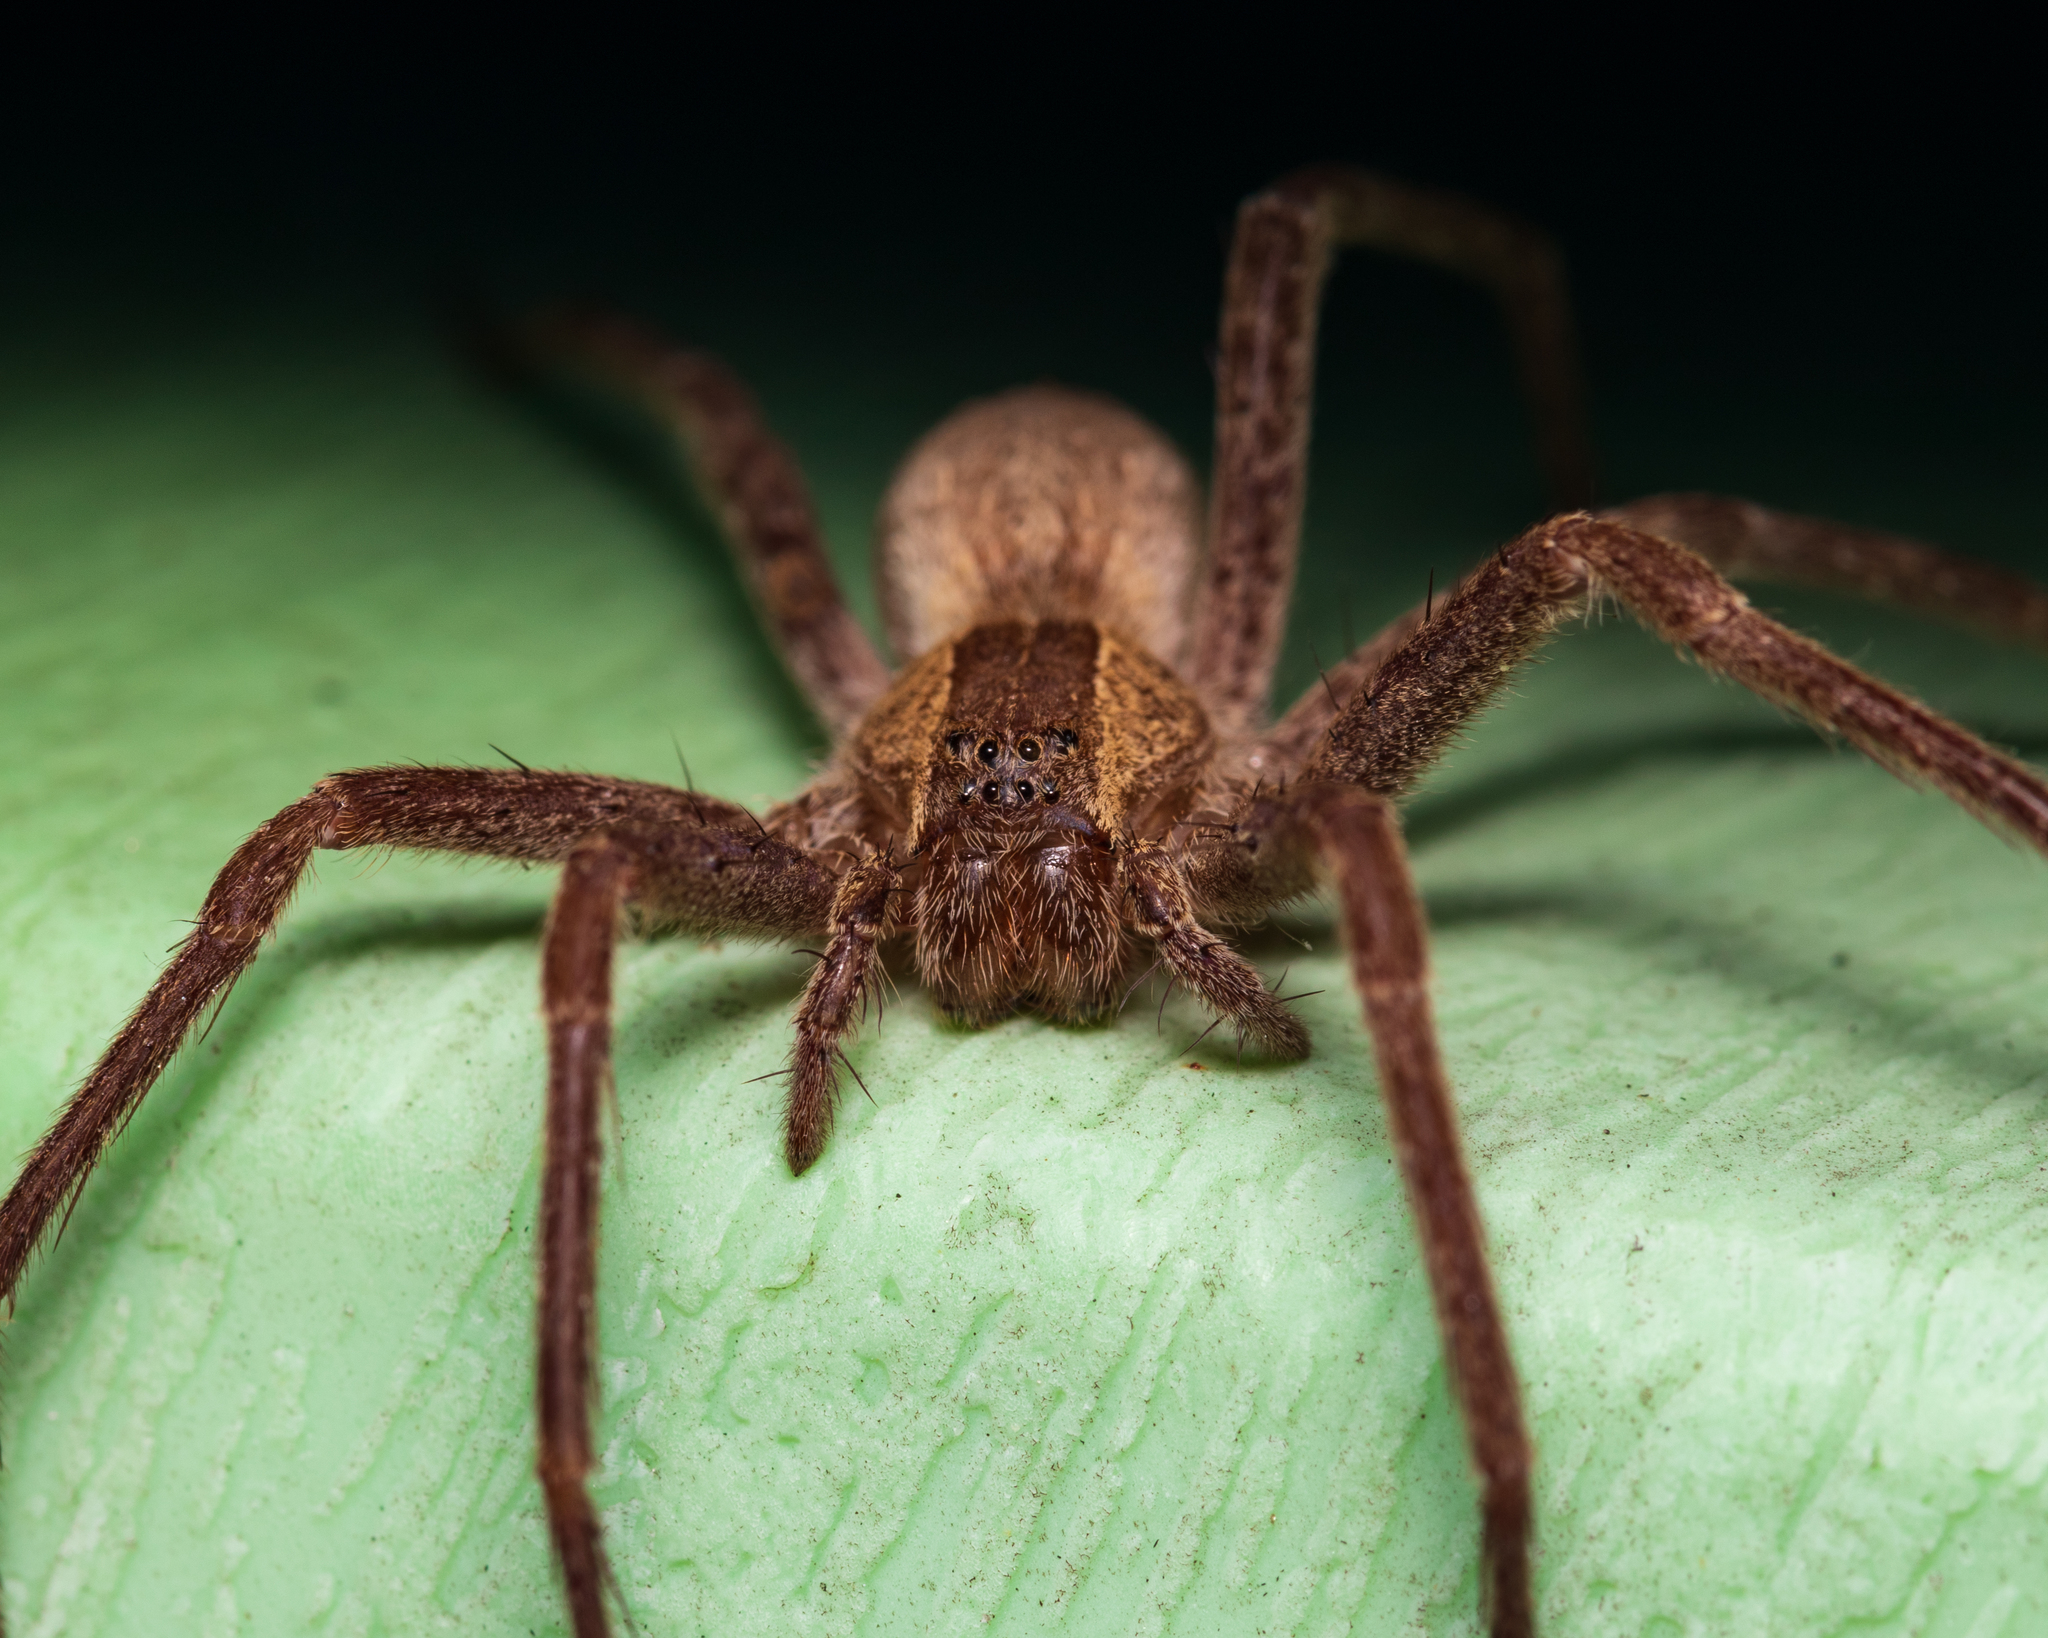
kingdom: Animalia
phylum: Arthropoda
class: Arachnida
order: Araneae
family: Pisauridae
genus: Pisaurina
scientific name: Pisaurina mira
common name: American nursery web spider
